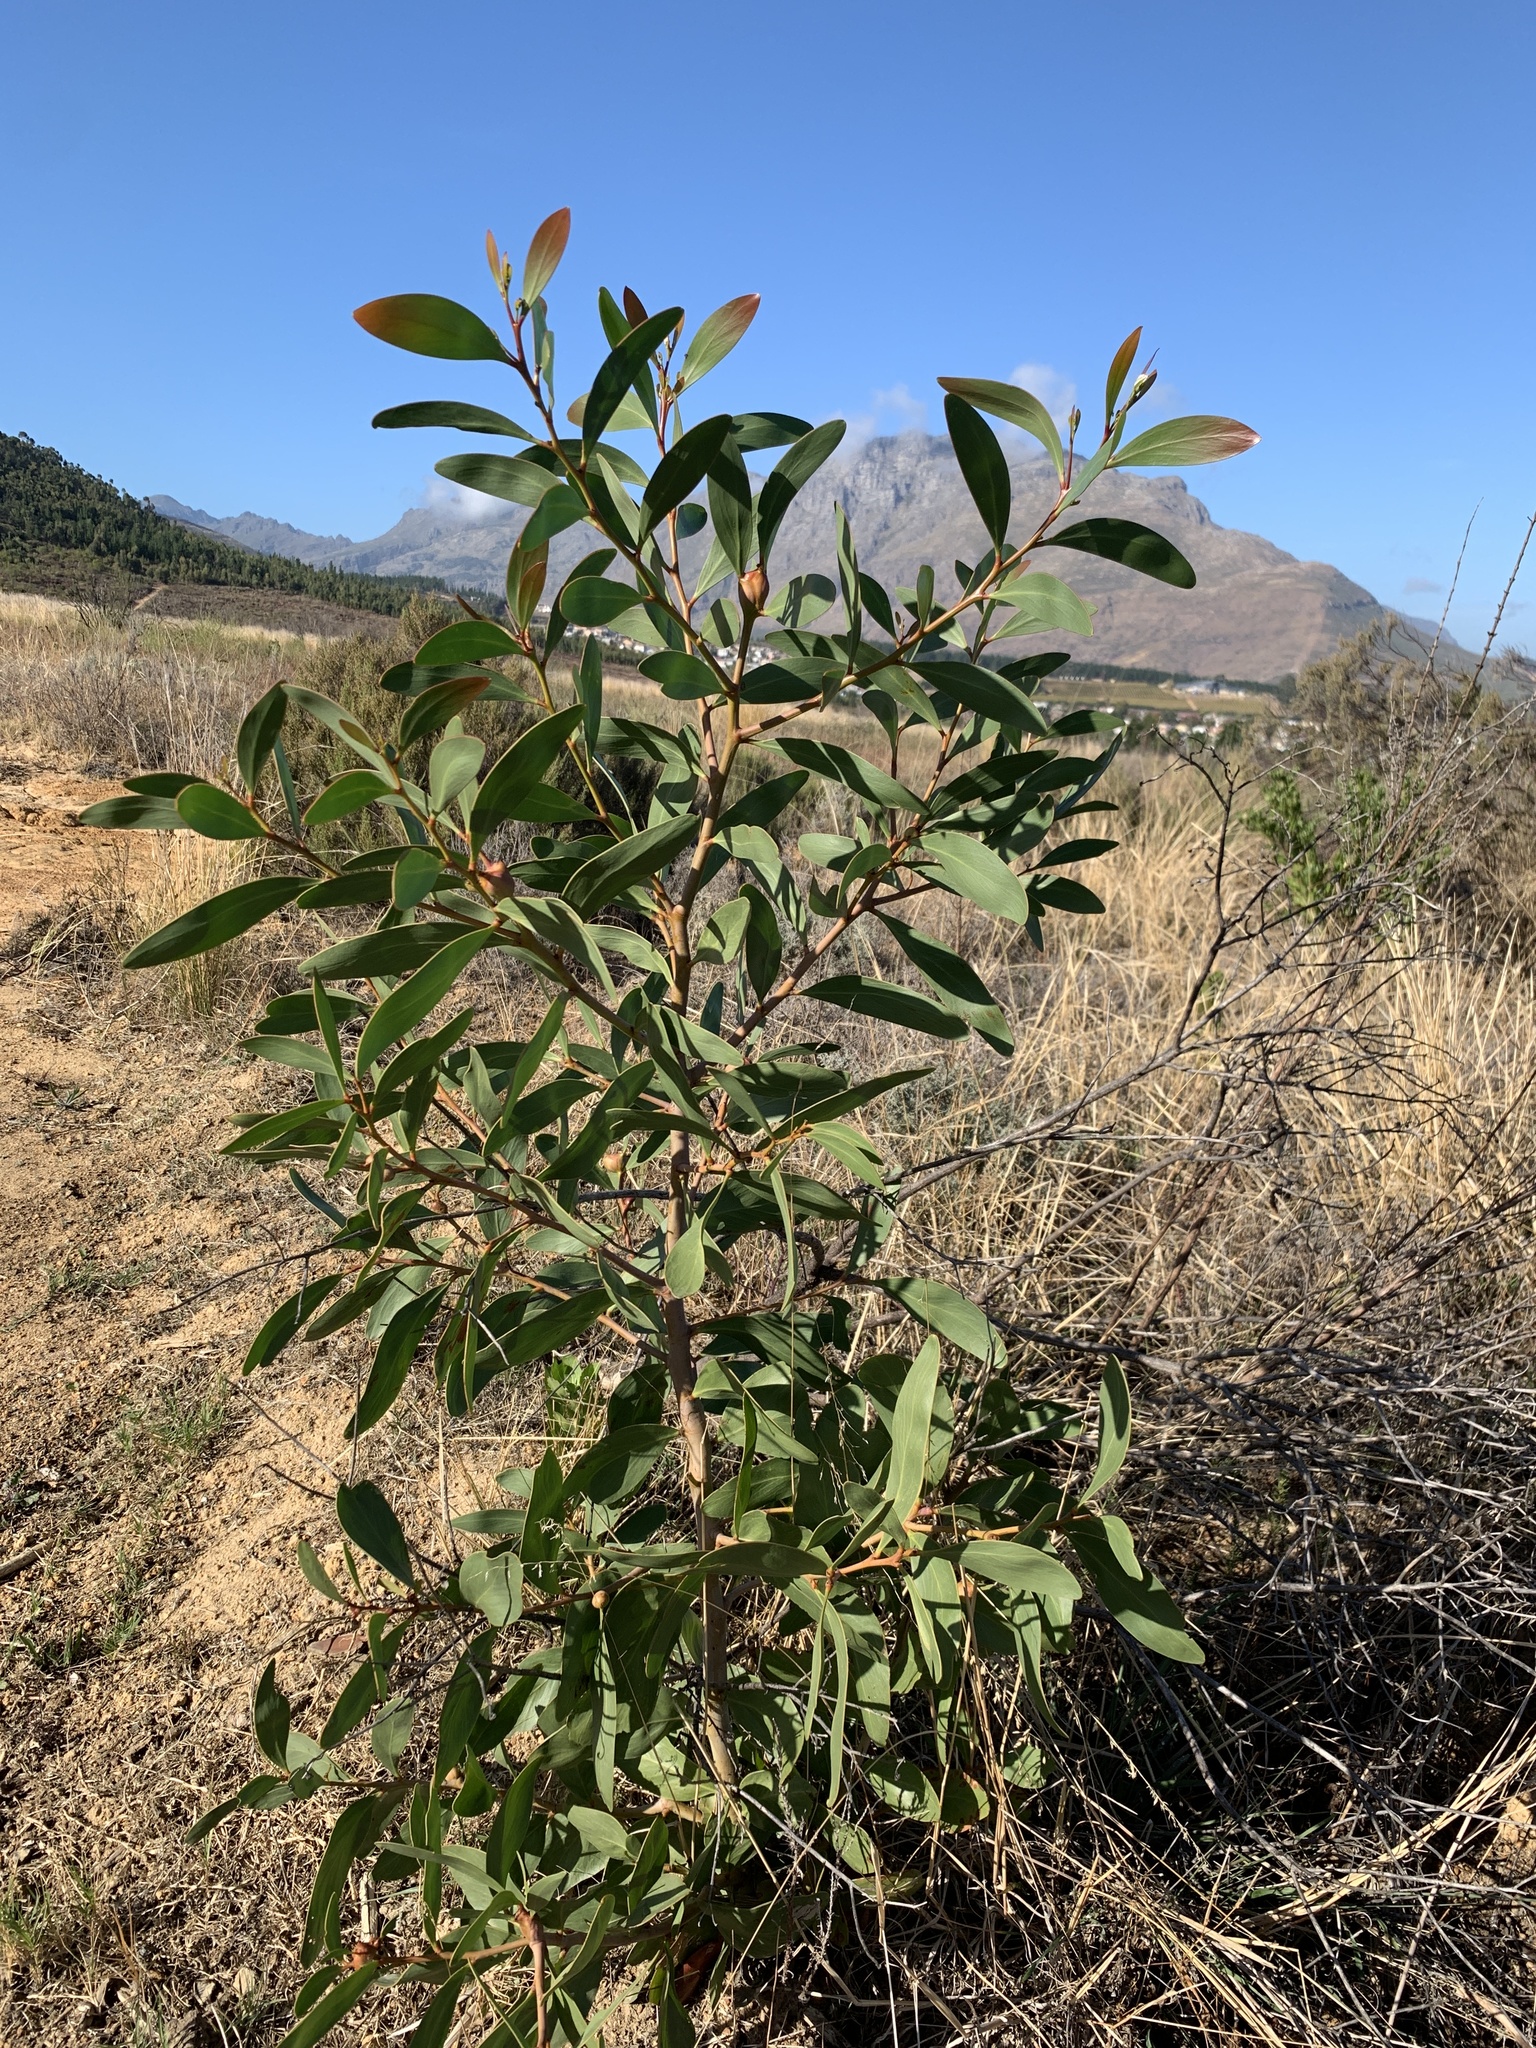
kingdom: Plantae
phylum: Tracheophyta
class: Magnoliopsida
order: Fabales
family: Fabaceae
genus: Acacia
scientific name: Acacia pycnantha
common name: Golden wattle
